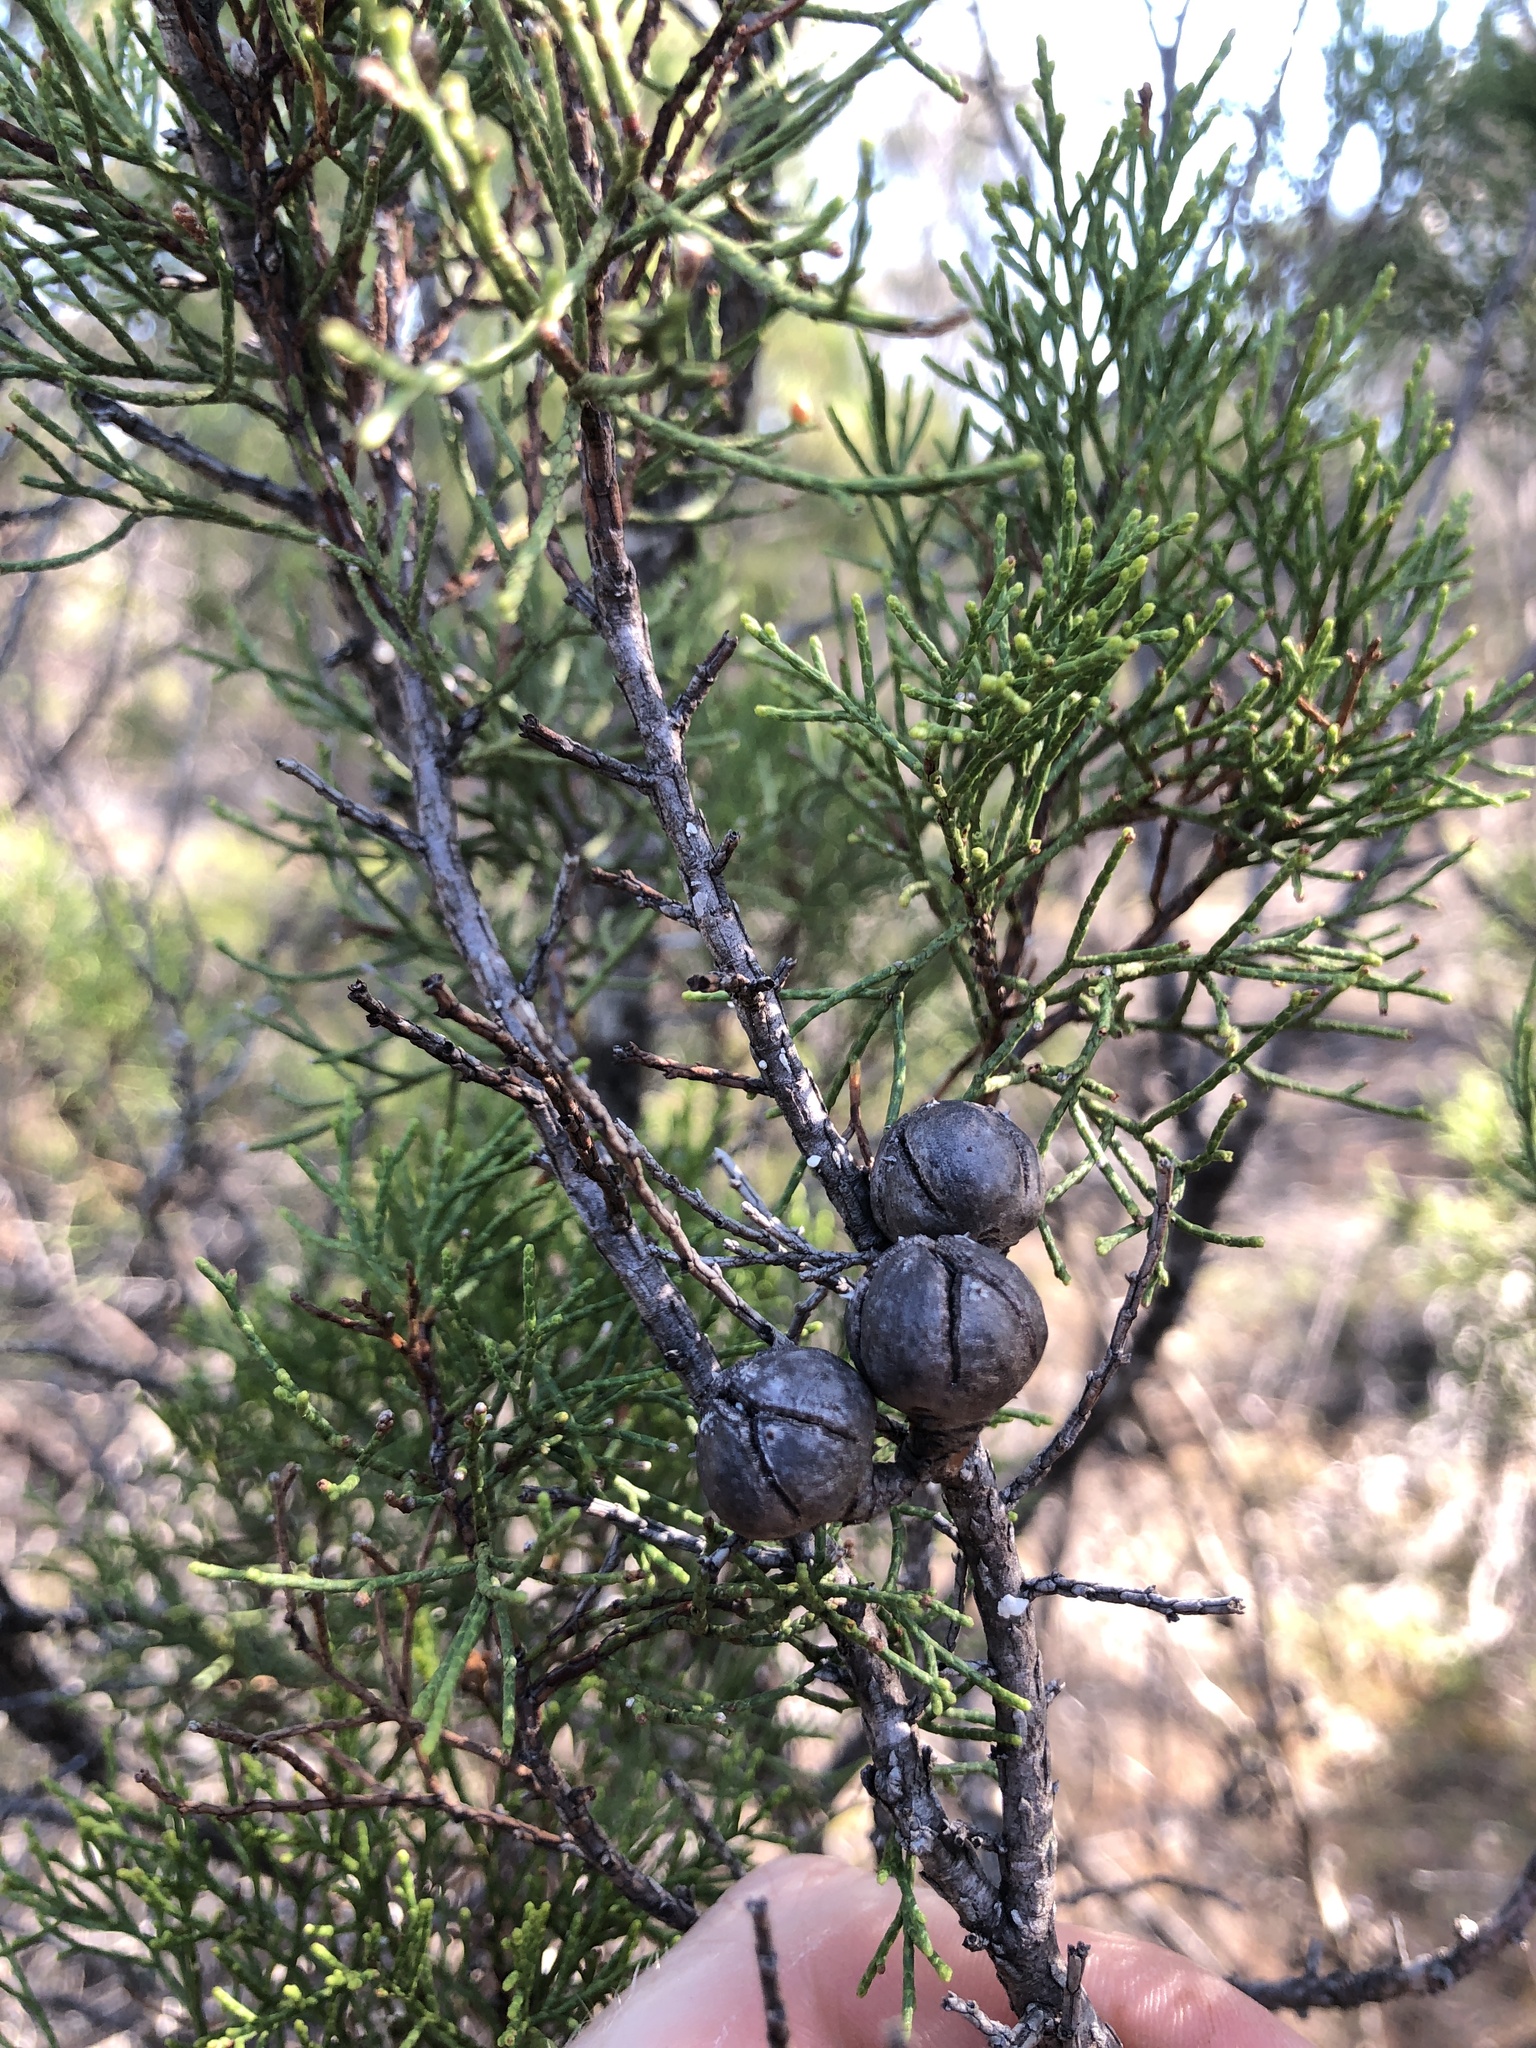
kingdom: Plantae
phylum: Tracheophyta
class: Pinopsida
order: Pinales
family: Cupressaceae
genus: Callitris
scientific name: Callitris preissii
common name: Mallee pine
